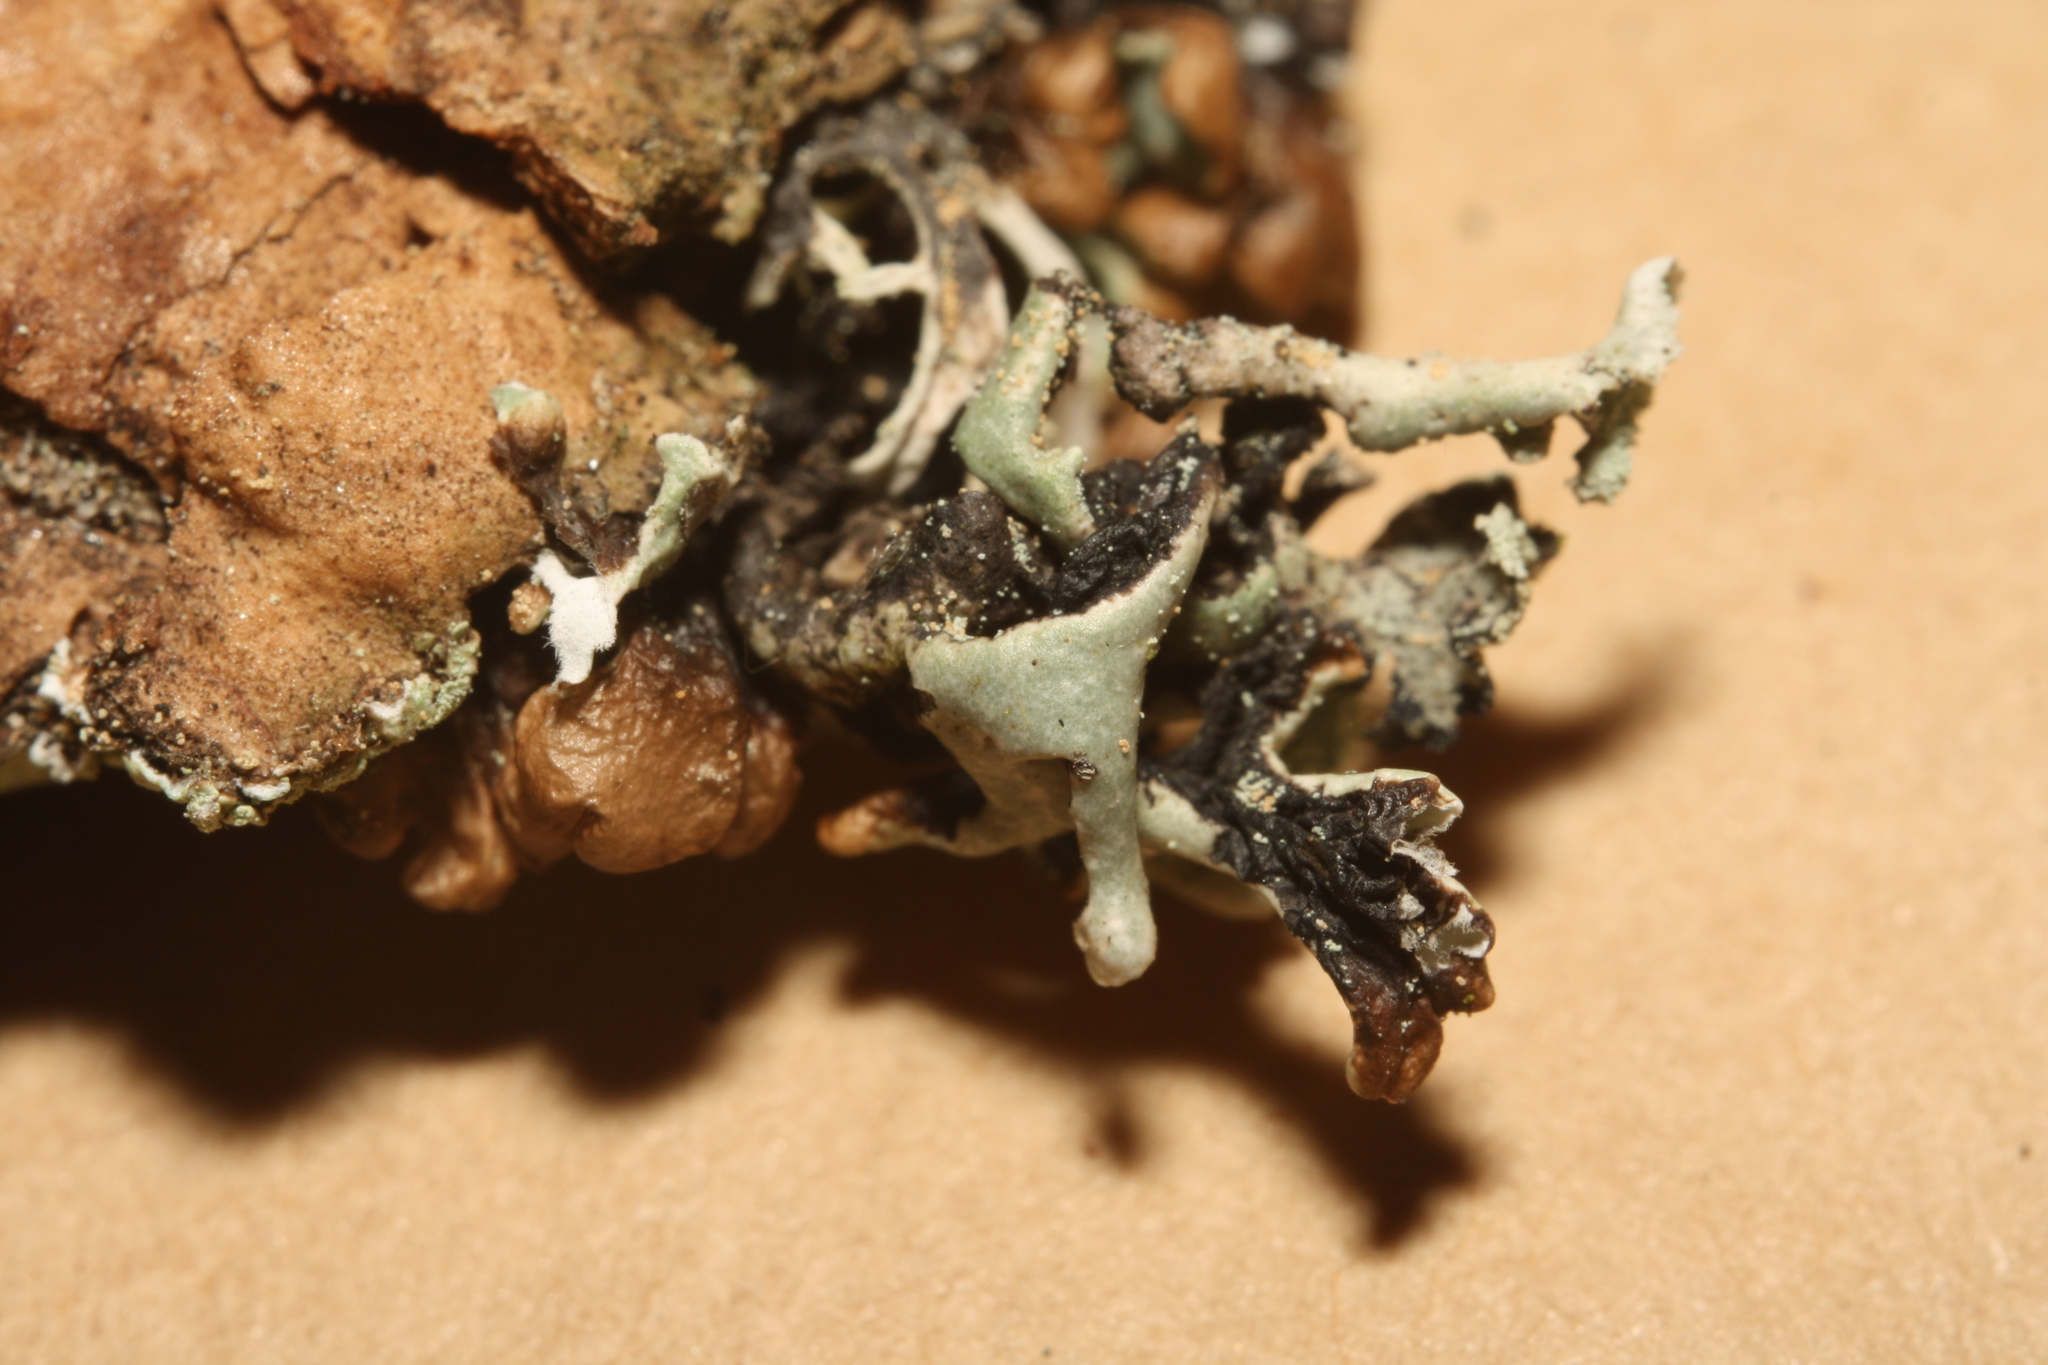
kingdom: Fungi
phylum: Ascomycota
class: Lecanoromycetes
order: Lecanorales
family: Parmeliaceae
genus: Hypogymnia
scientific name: Hypogymnia physodes
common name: Dark crottle
